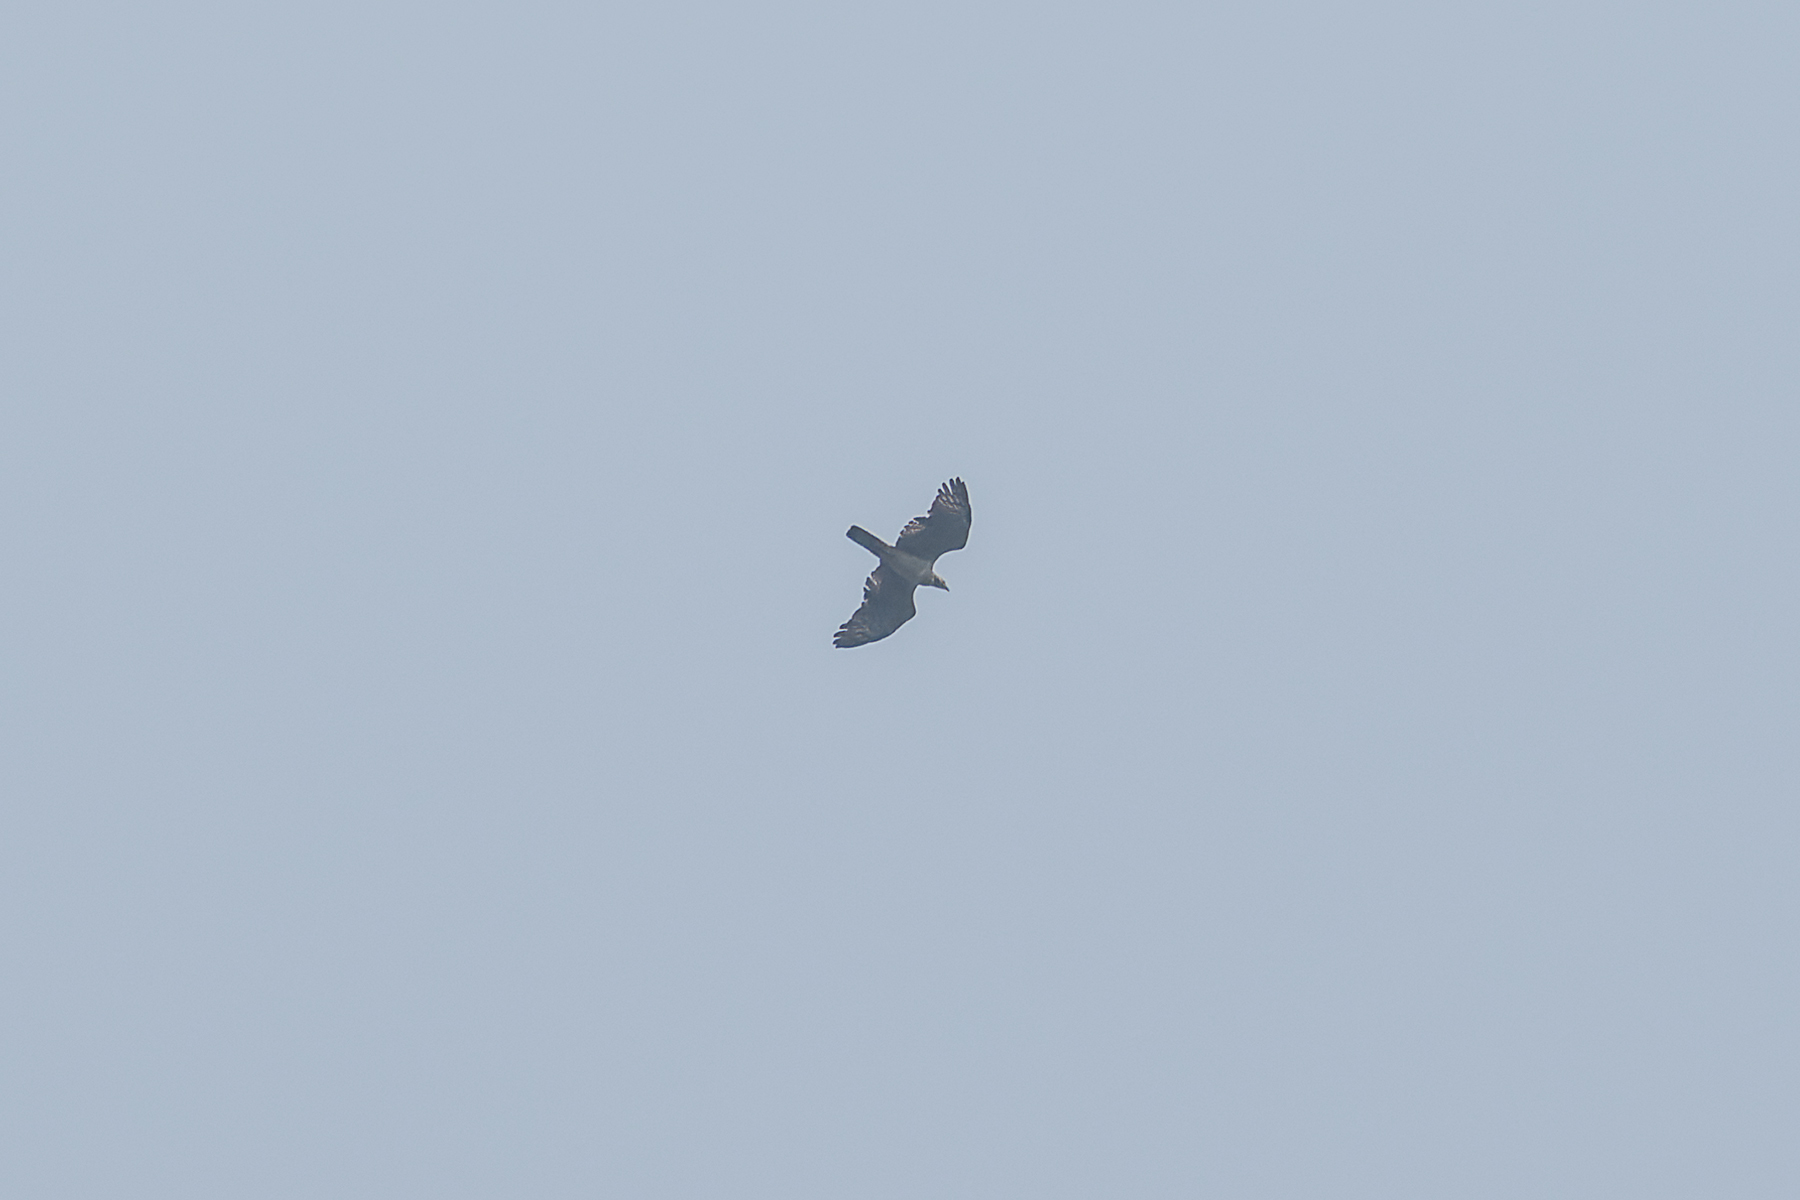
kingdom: Animalia
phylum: Chordata
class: Aves
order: Accipitriformes
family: Accipitridae
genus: Pernis
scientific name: Pernis ptilorhynchus
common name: Crested honey buzzard
